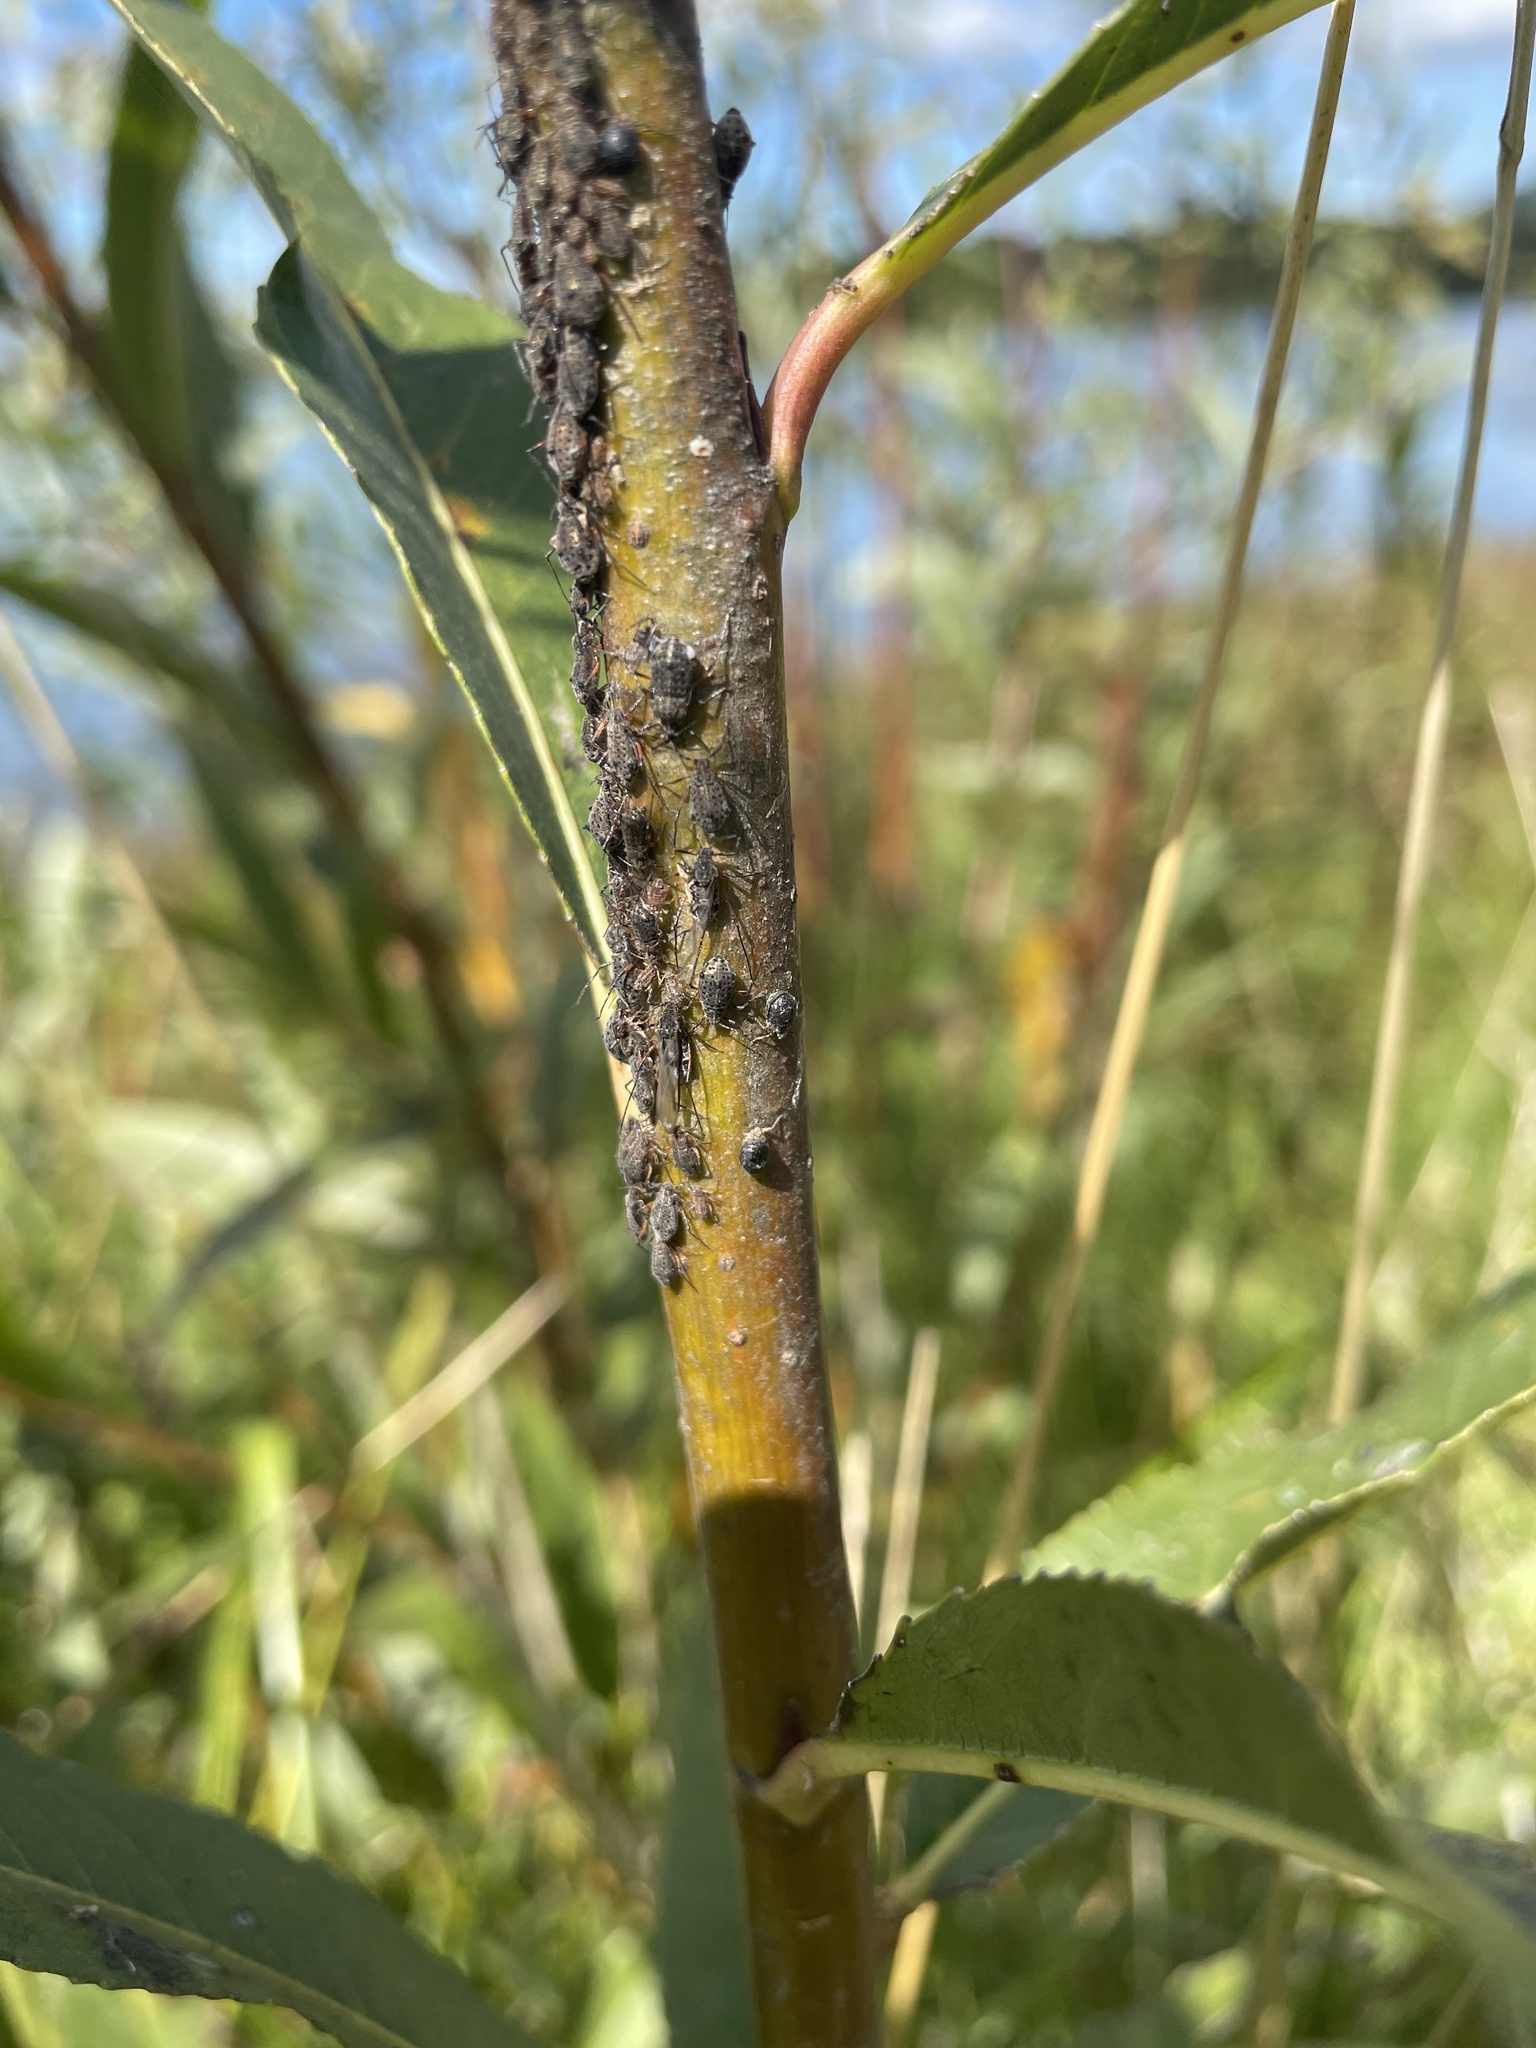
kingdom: Animalia
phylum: Arthropoda
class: Insecta
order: Hymenoptera
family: Braconidae
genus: Pauesia
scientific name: Pauesia nigrovaria
